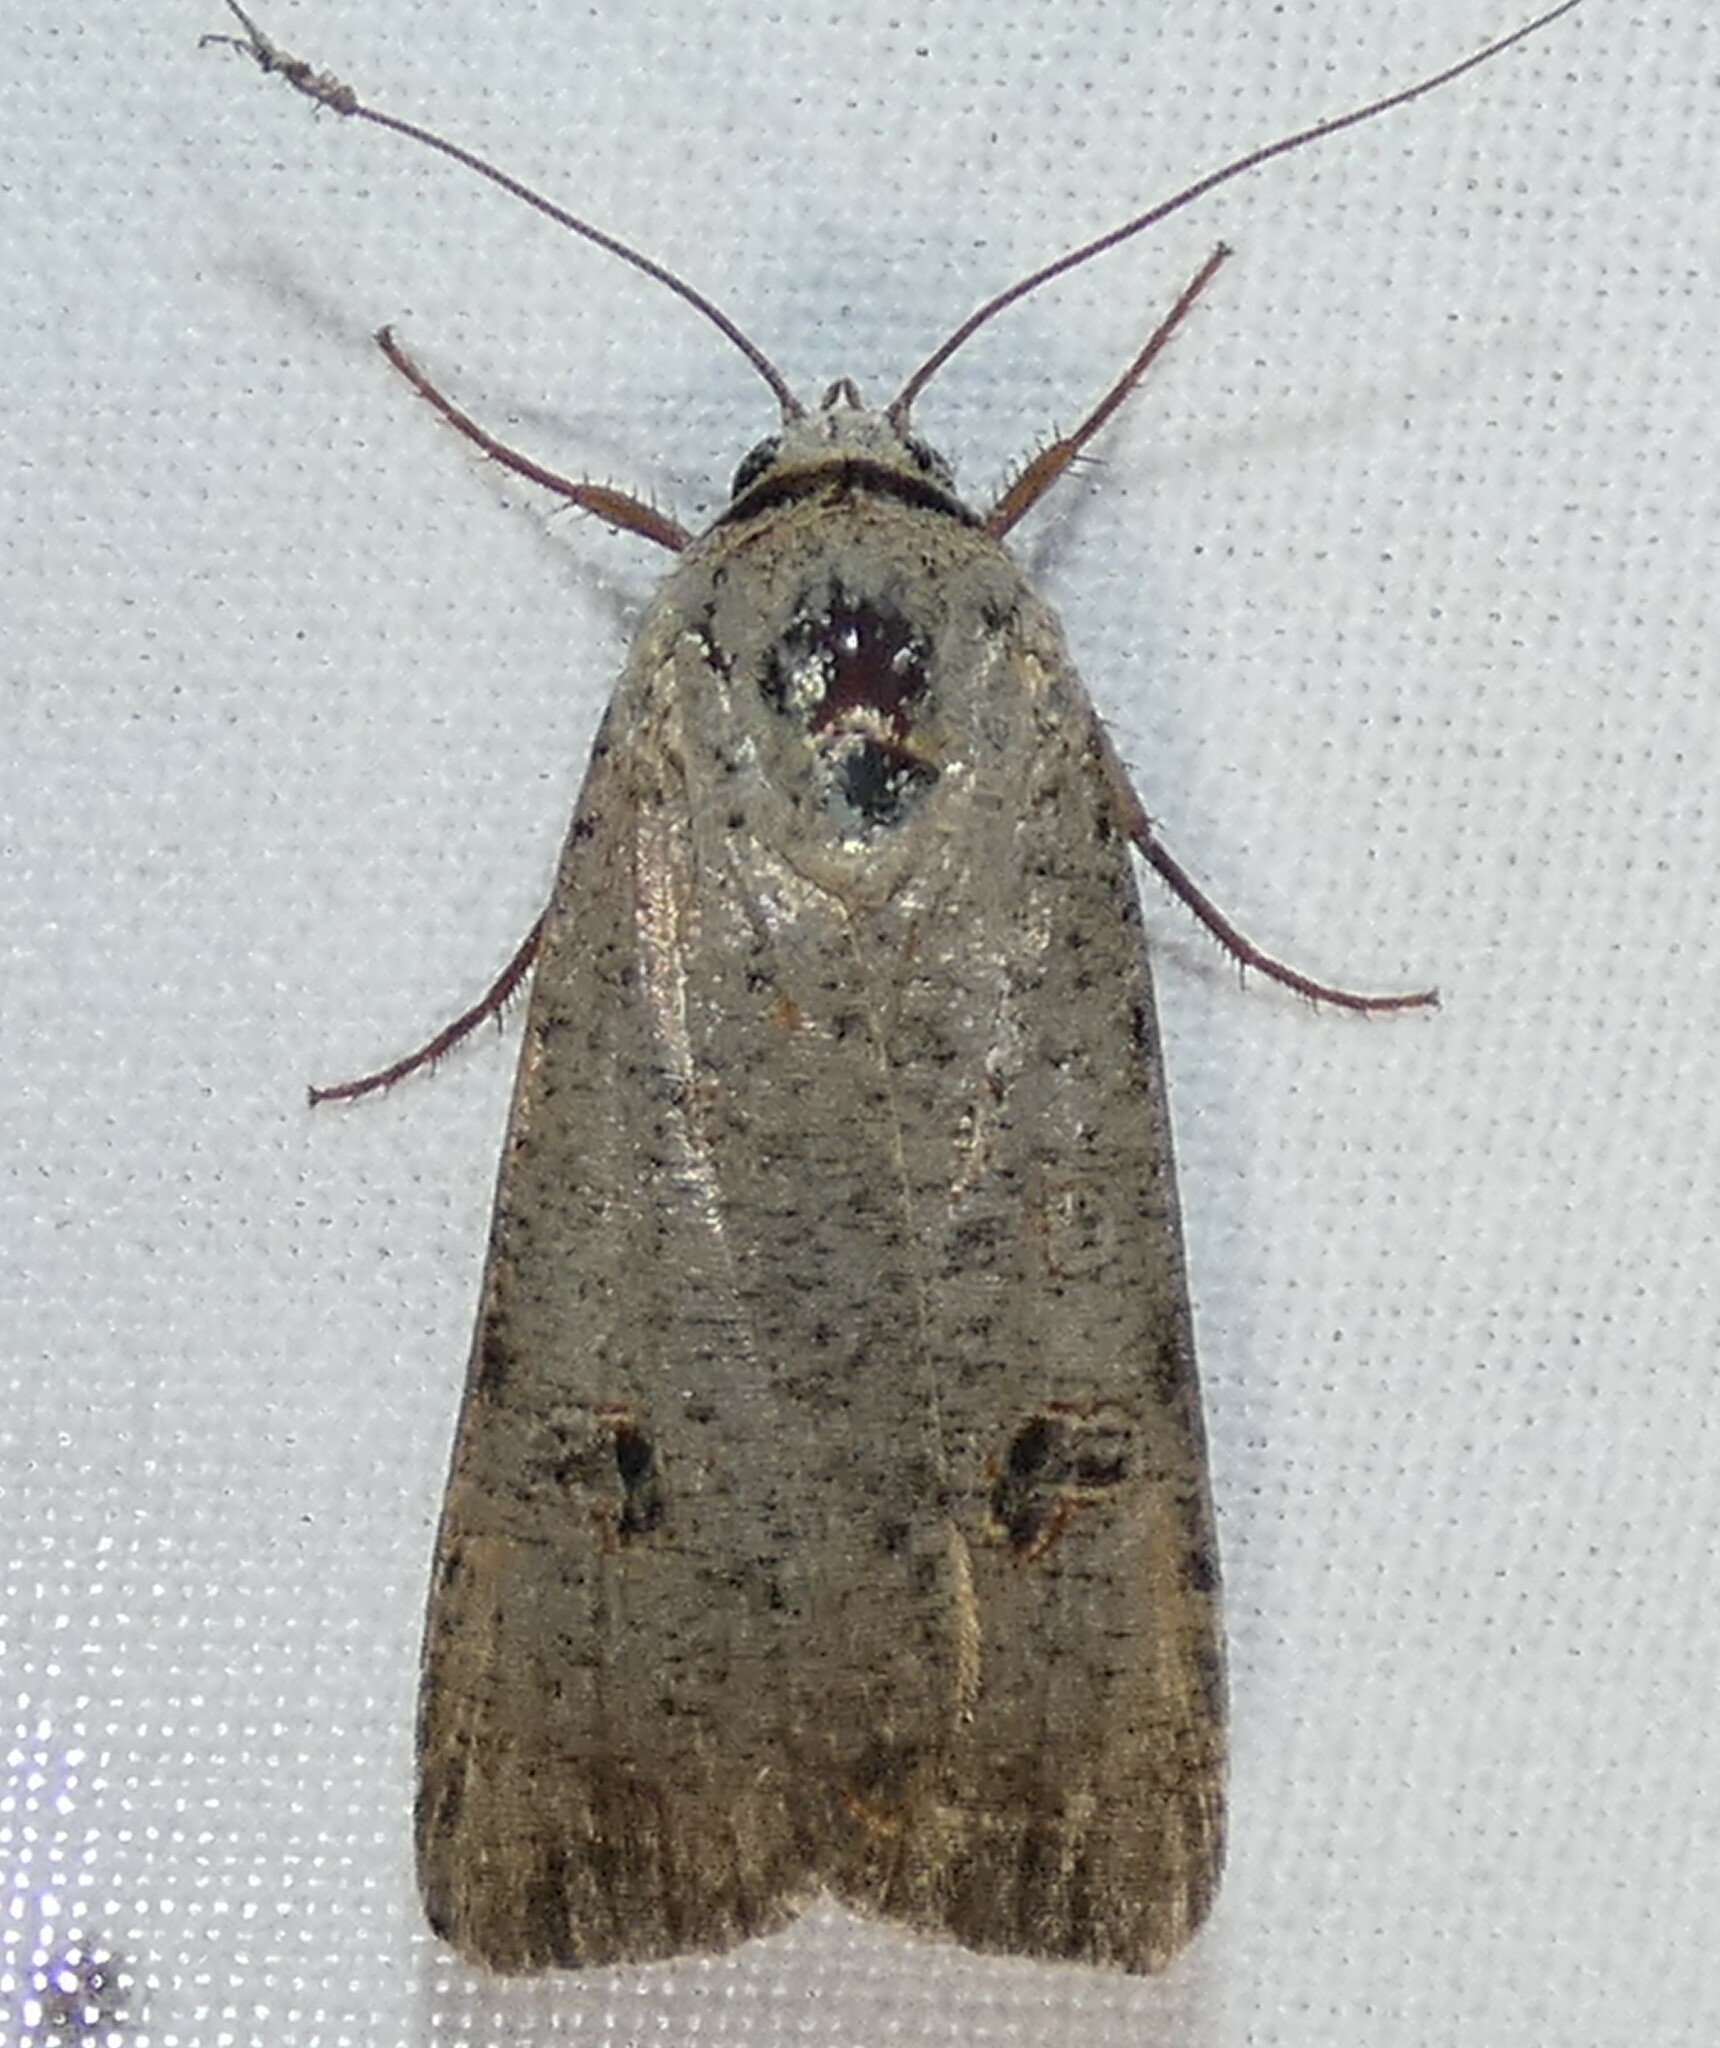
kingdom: Animalia
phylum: Arthropoda
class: Insecta
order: Lepidoptera
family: Noctuidae
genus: Anicla
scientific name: Anicla infecta
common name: Green cutworm
